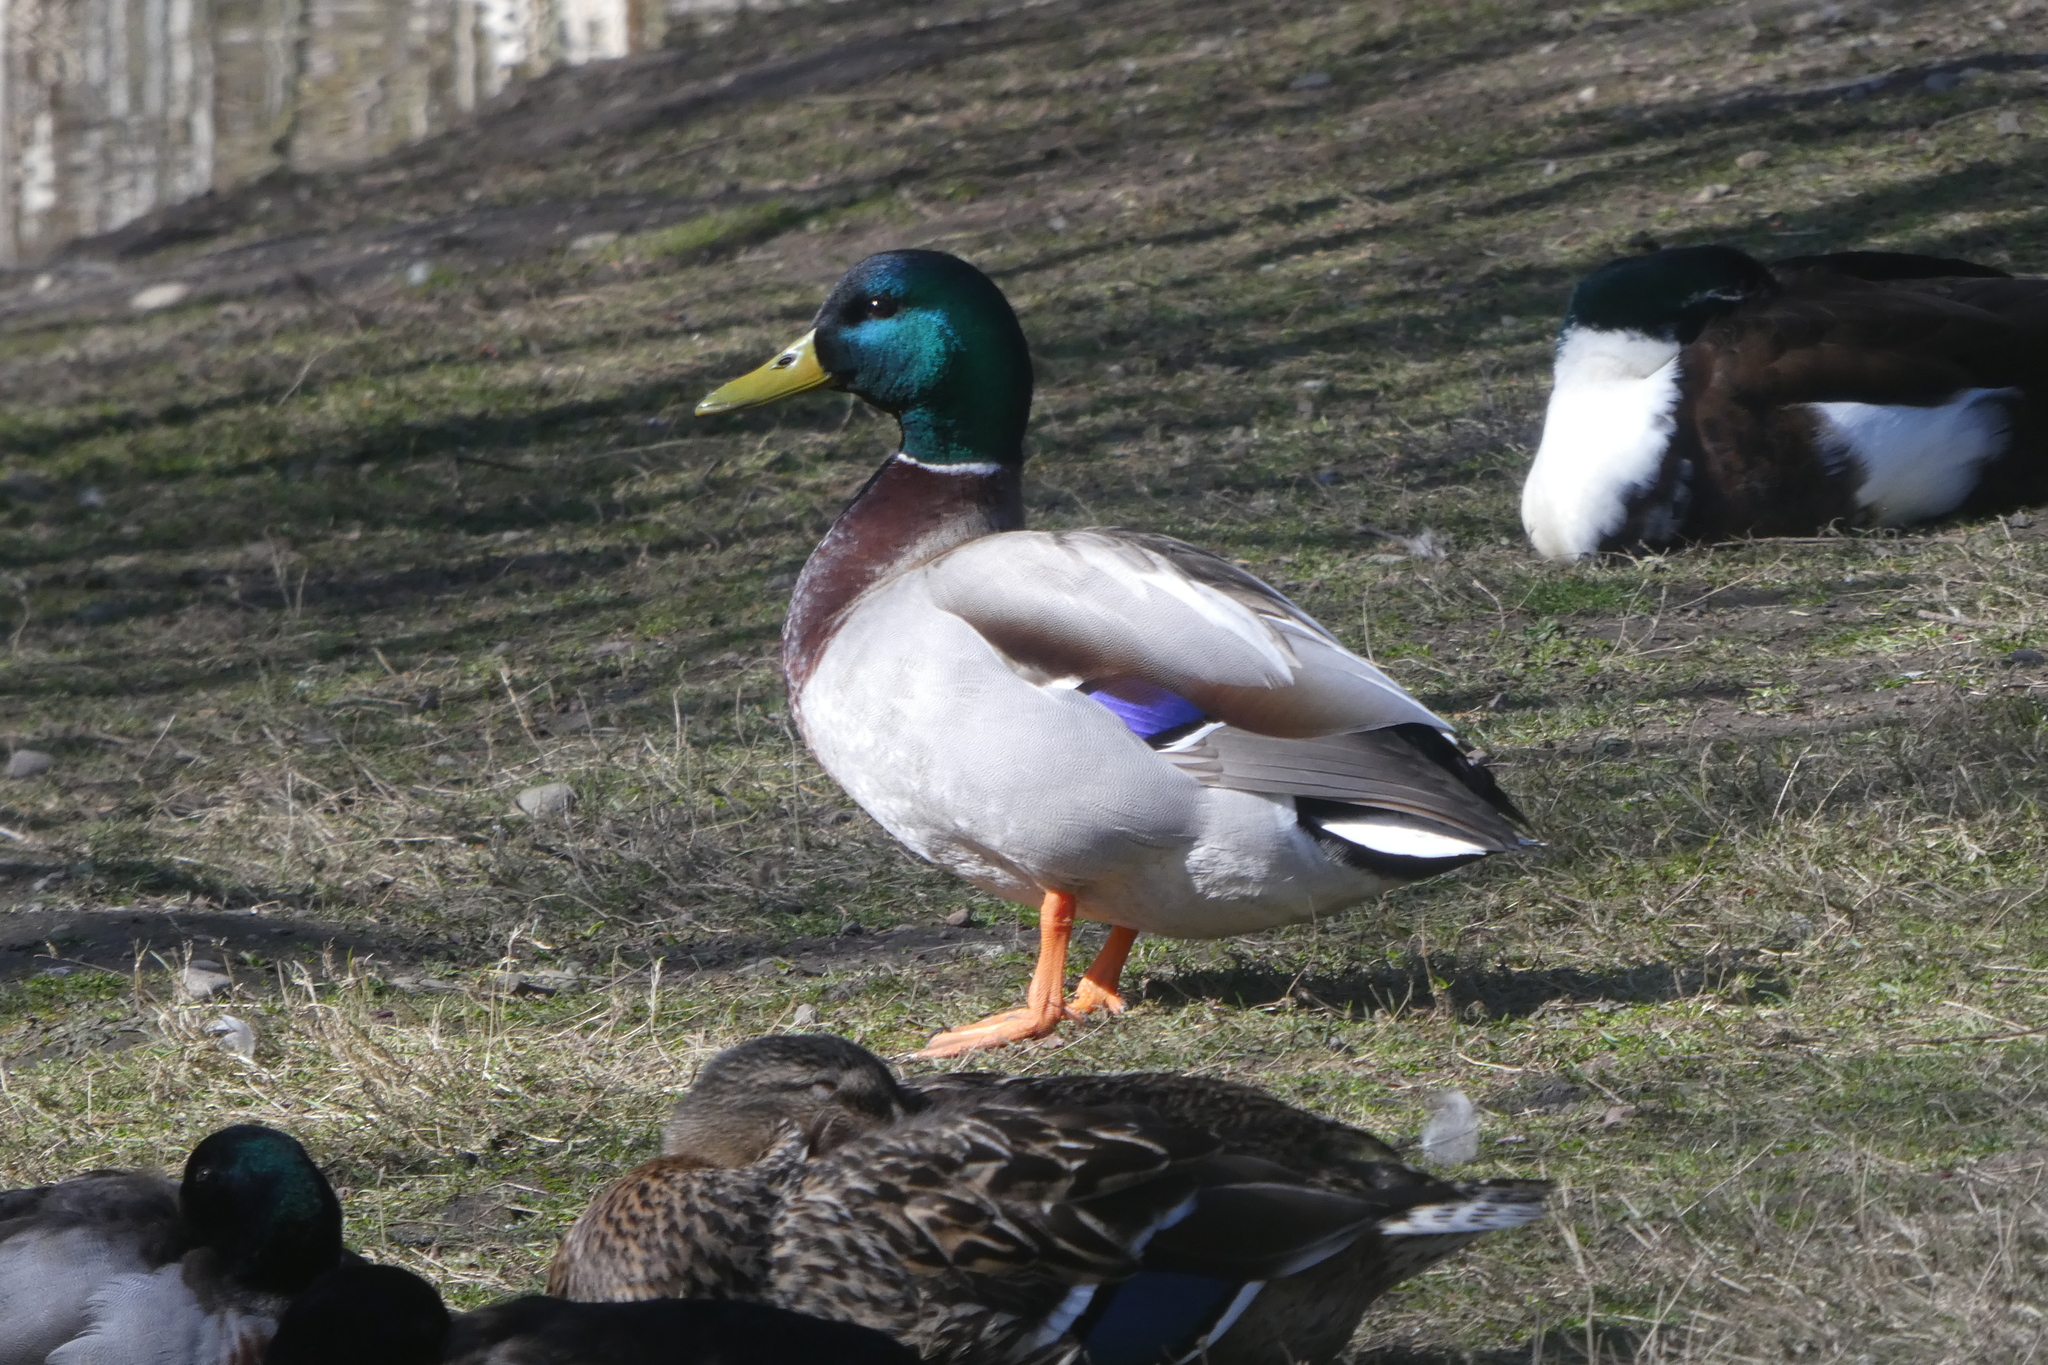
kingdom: Animalia
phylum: Chordata
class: Aves
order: Anseriformes
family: Anatidae
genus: Anas
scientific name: Anas platyrhynchos
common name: Mallard
